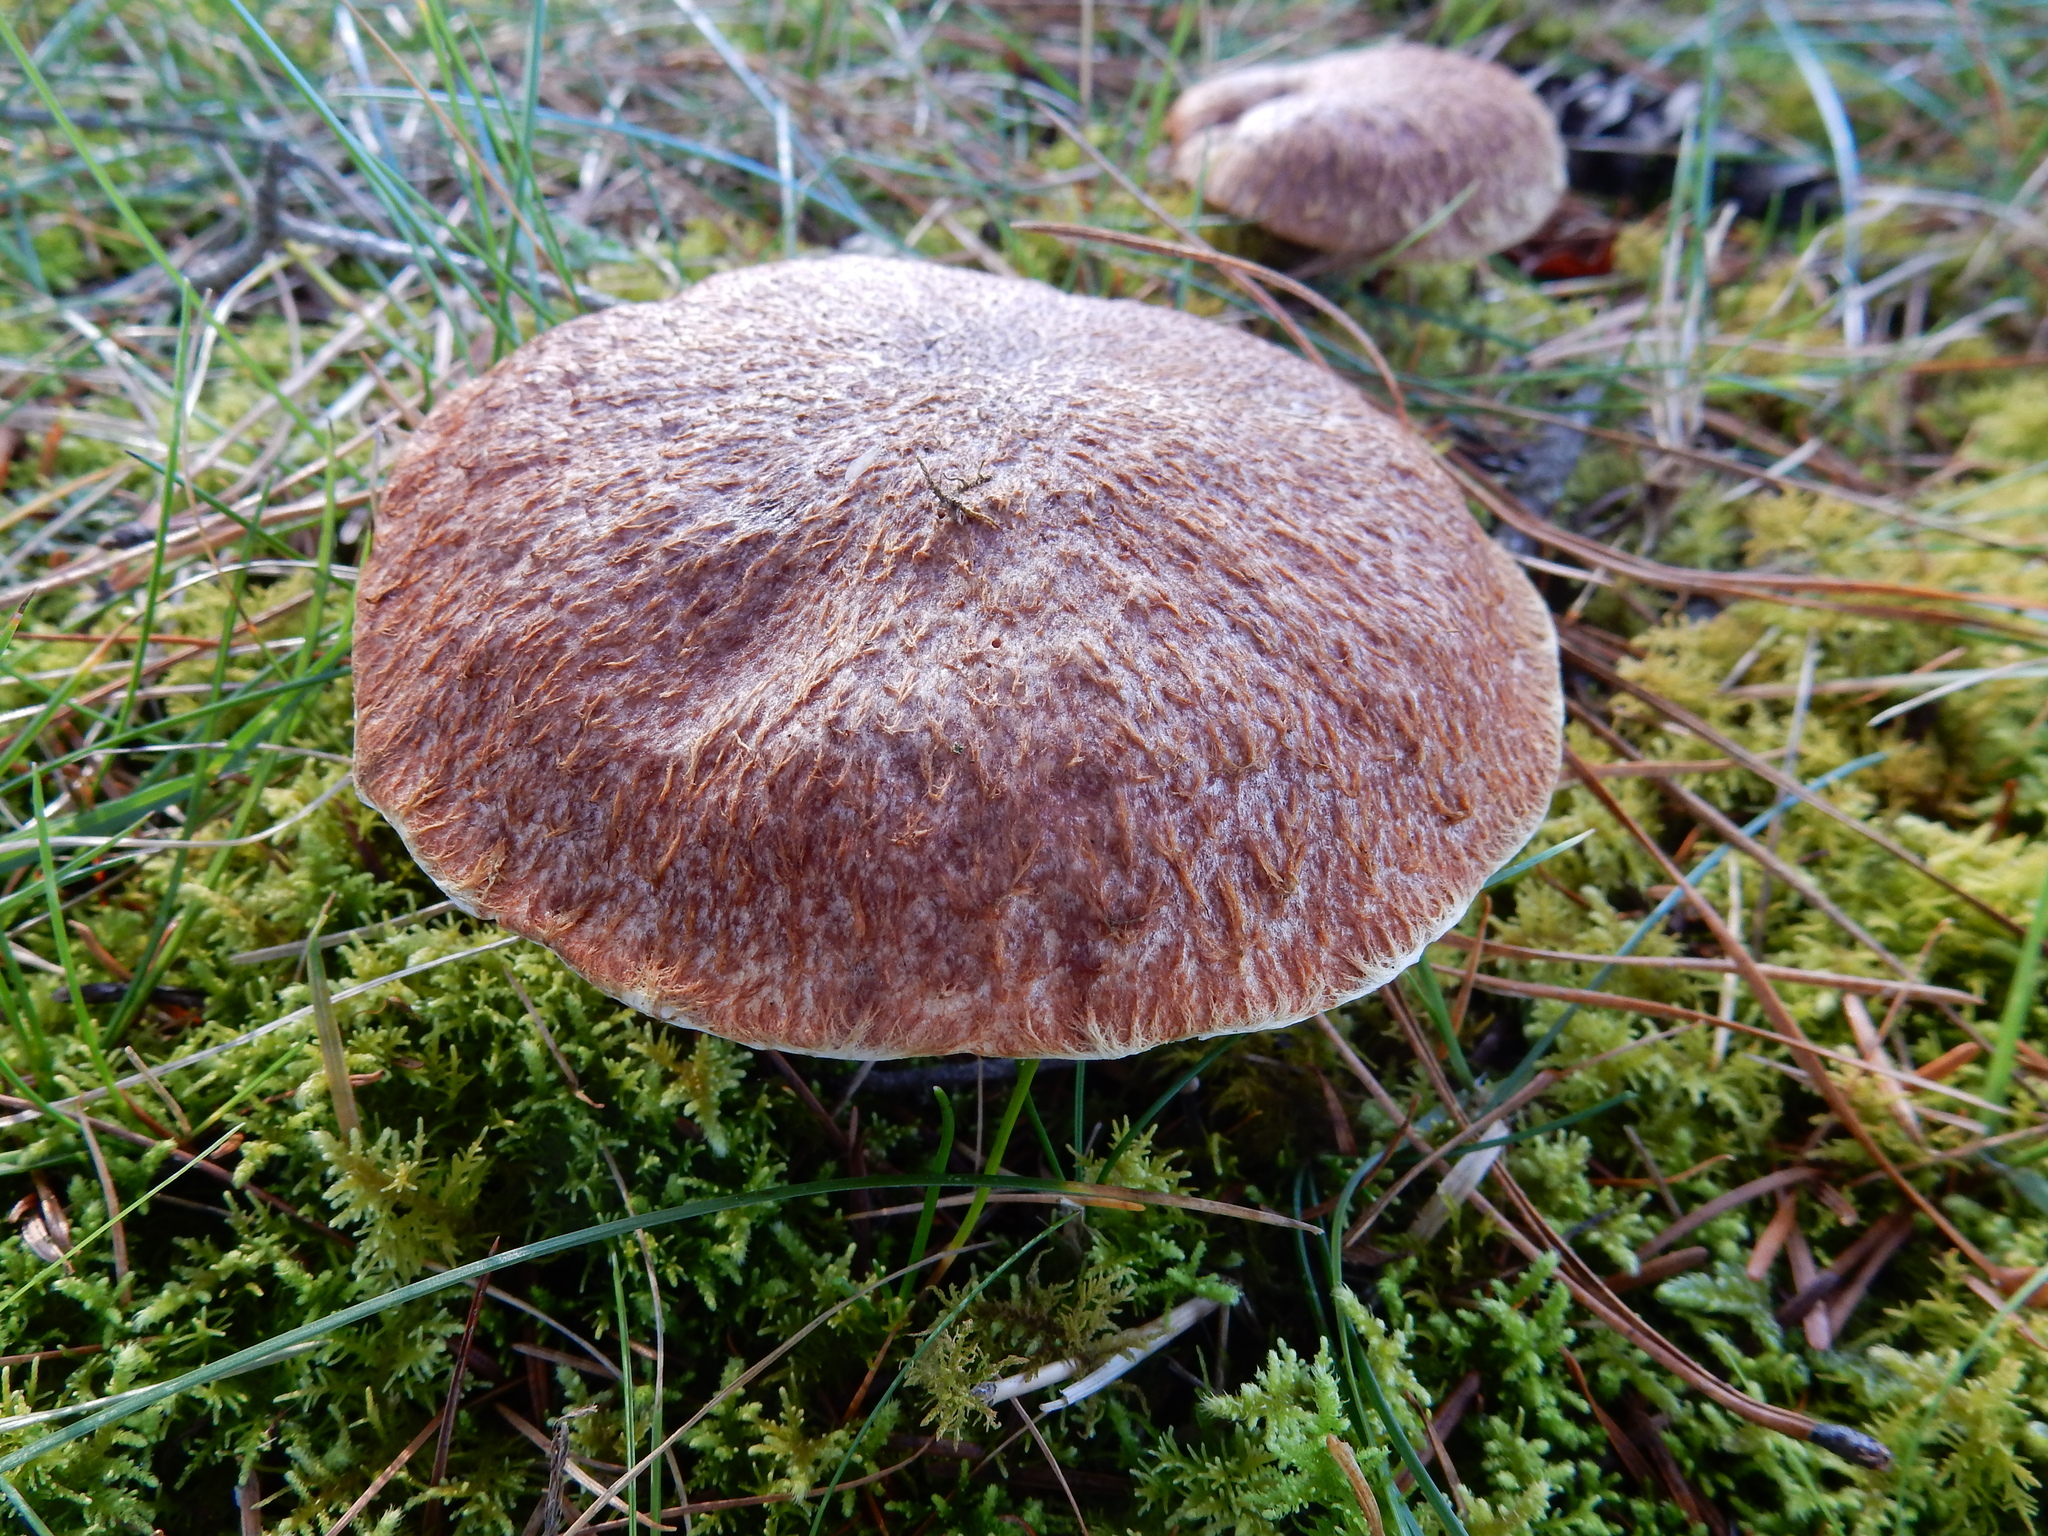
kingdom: Fungi
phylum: Basidiomycota
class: Agaricomycetes
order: Boletales
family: Suillaceae
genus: Suillus
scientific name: Suillus lakei
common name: Western painted suillus
